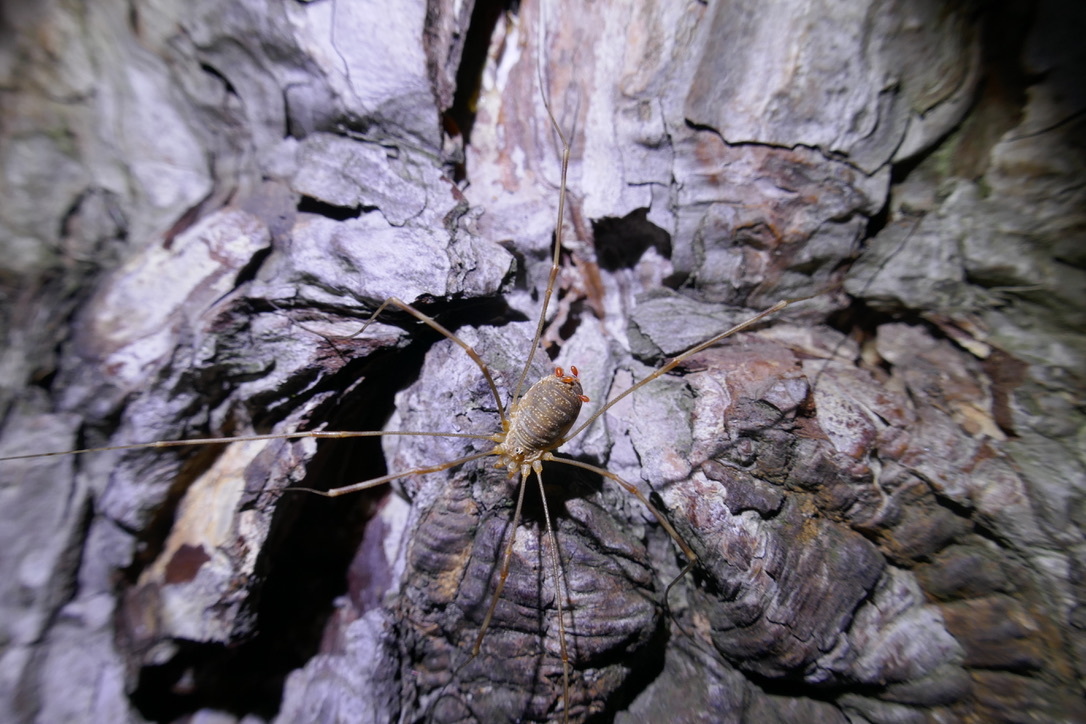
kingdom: Animalia
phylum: Arthropoda
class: Arachnida
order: Opiliones
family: Phalangiidae
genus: Opilio
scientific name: Opilio canestrinii
